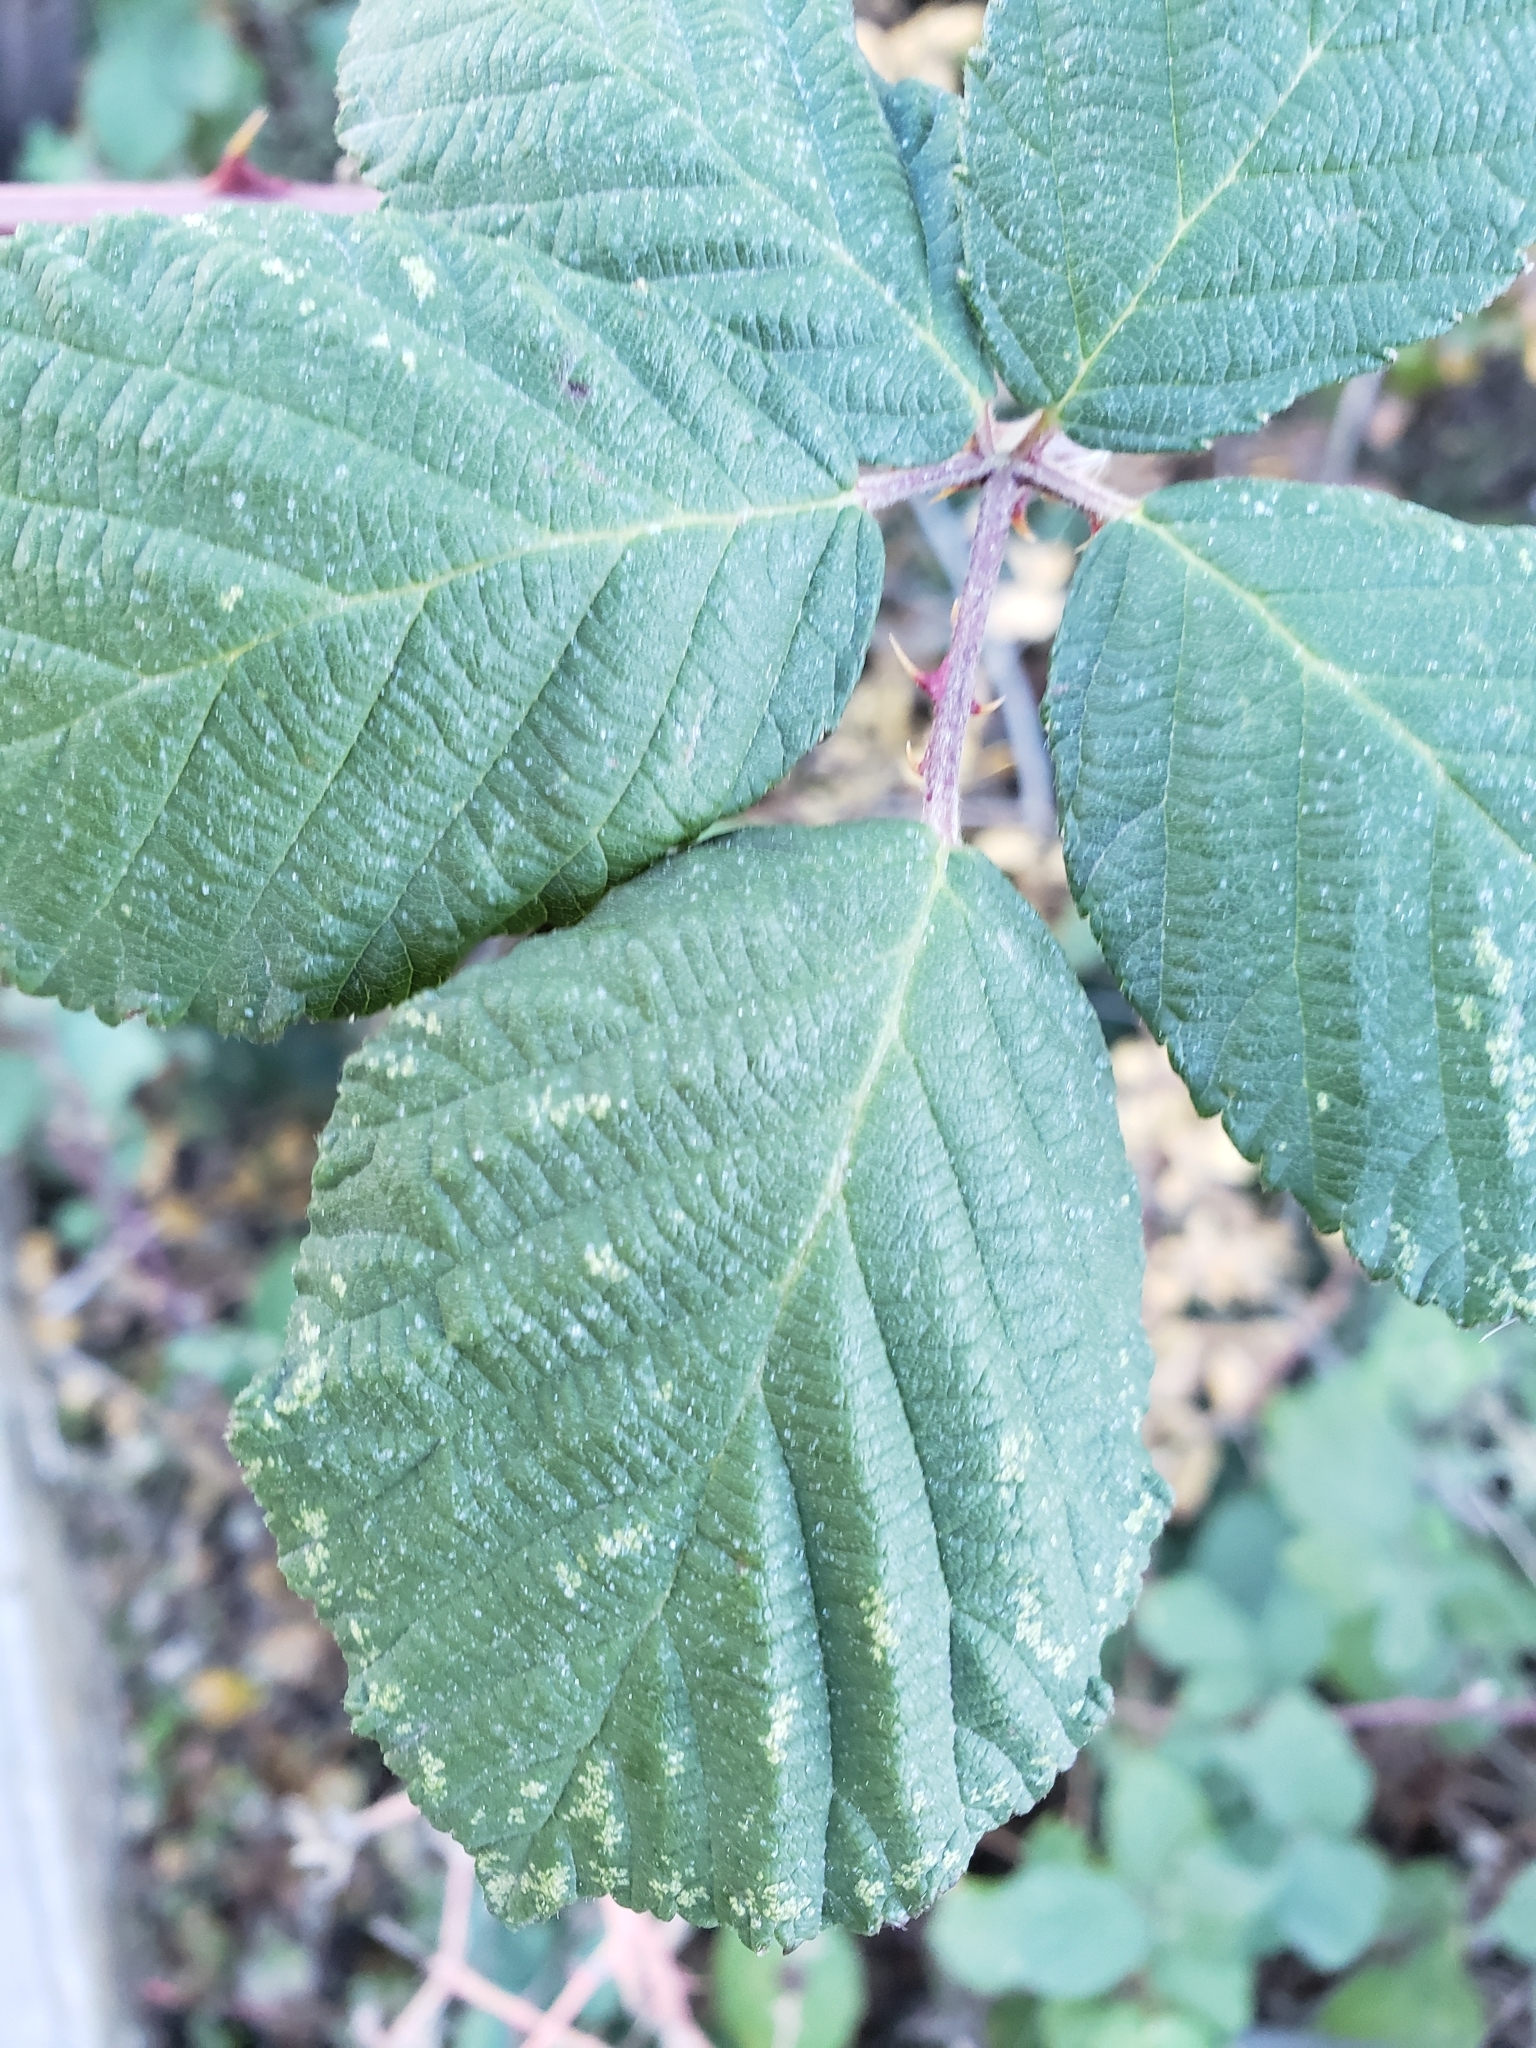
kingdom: Plantae
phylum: Tracheophyta
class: Magnoliopsida
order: Rosales
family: Rosaceae
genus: Rubus
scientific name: Rubus armeniacus
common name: Himalayan blackberry
